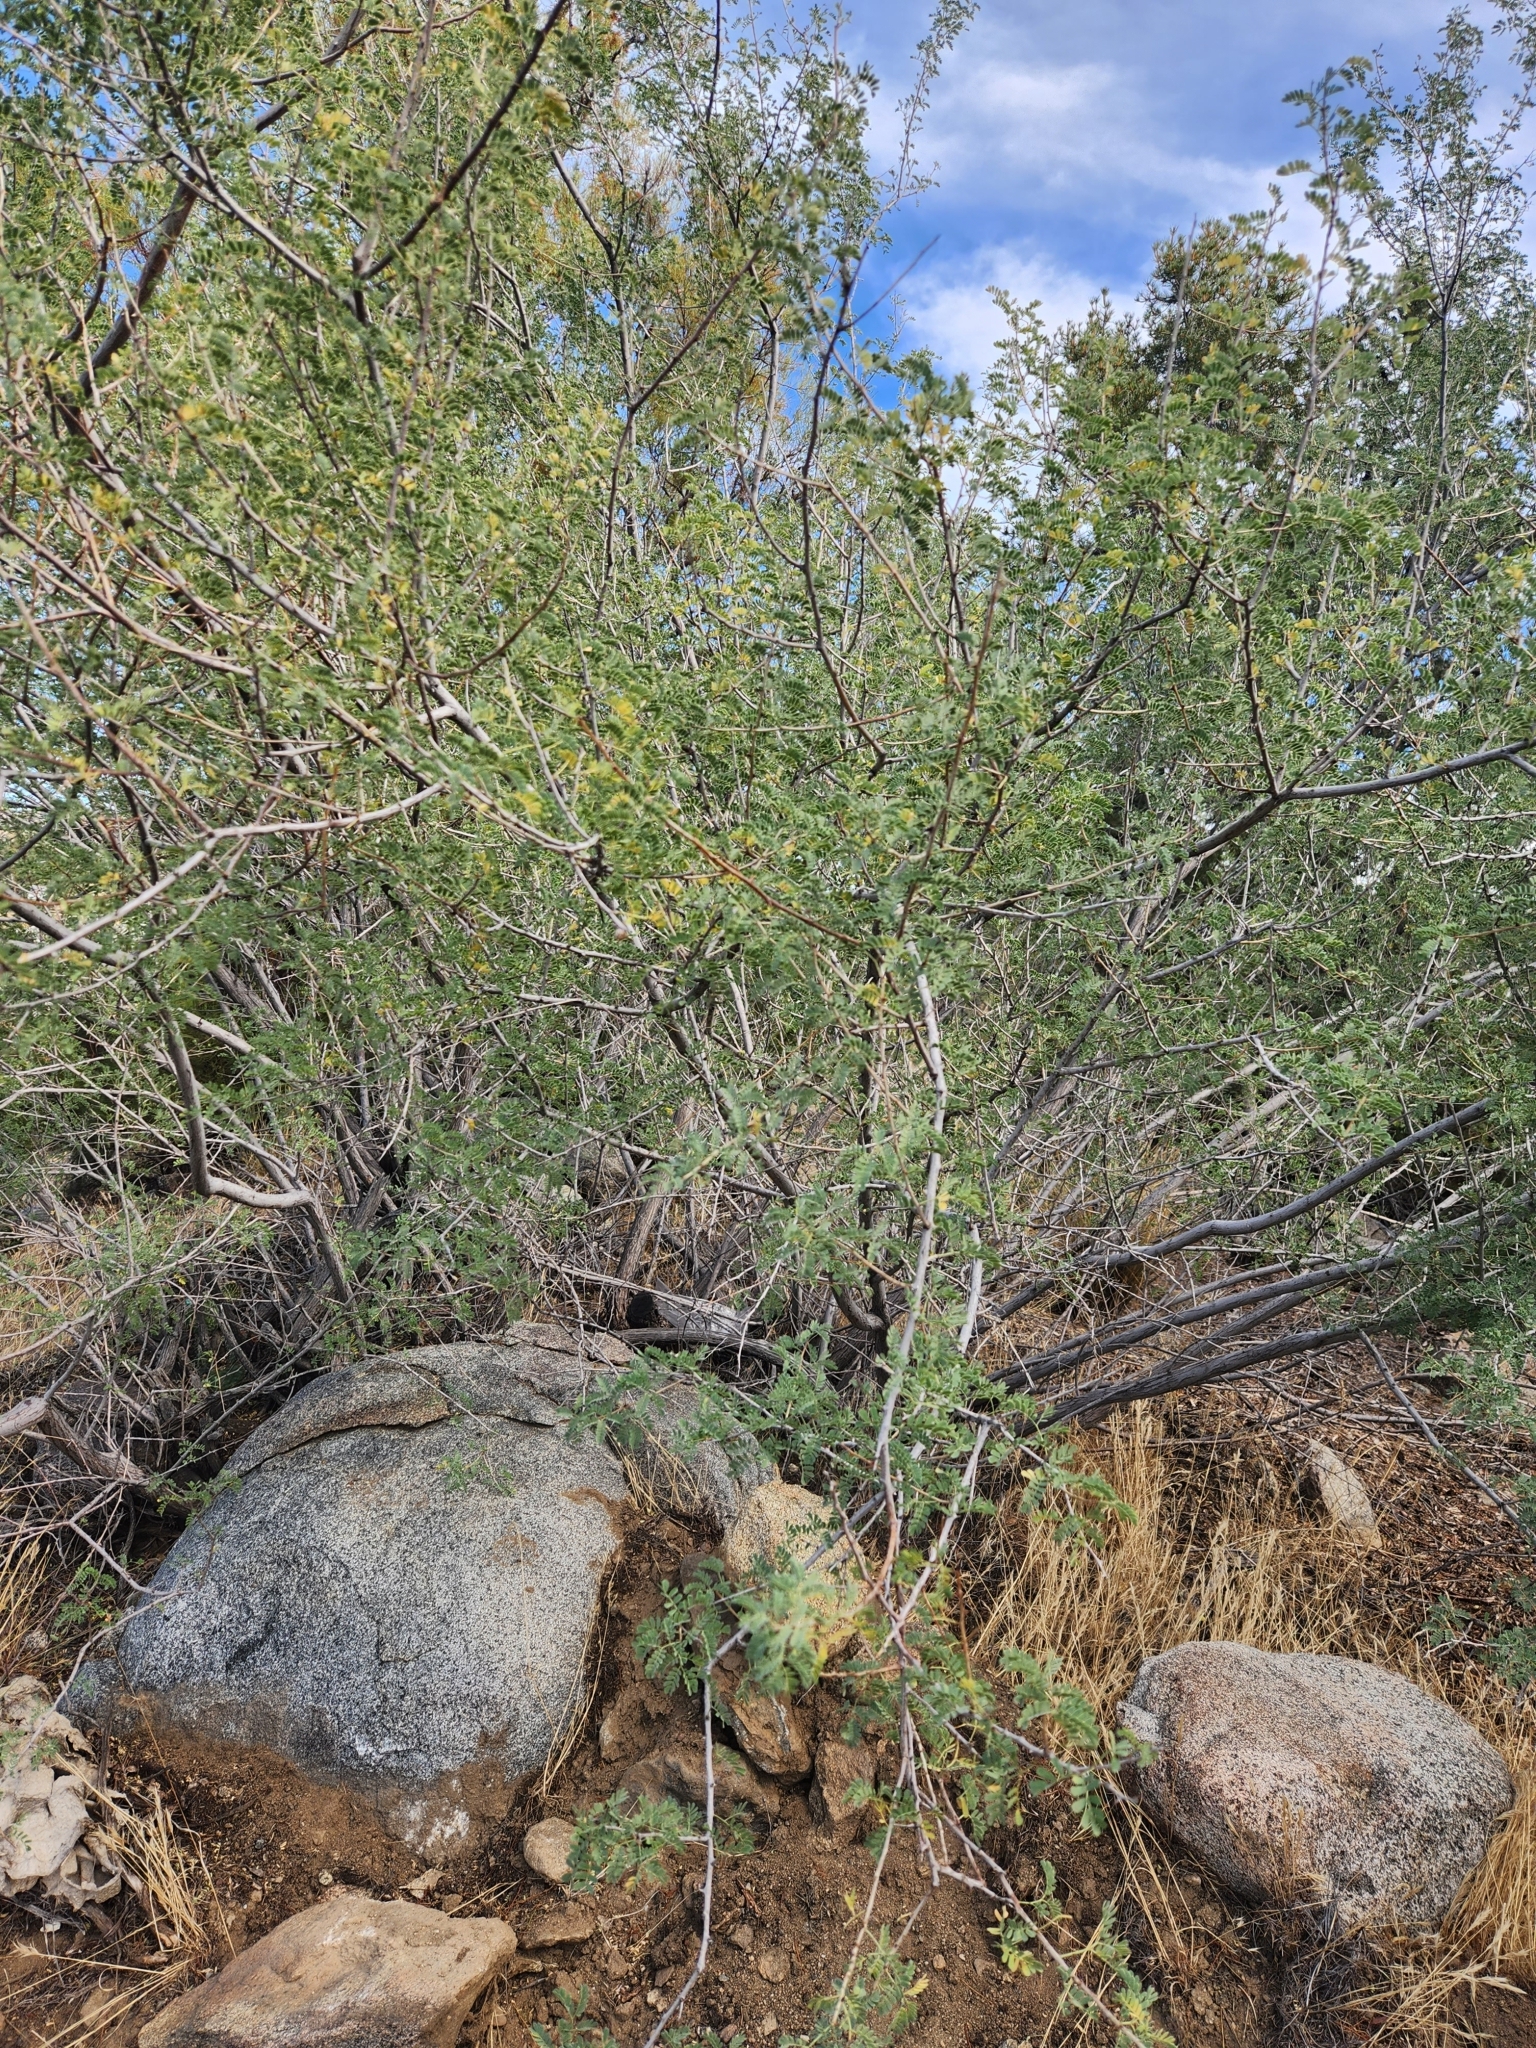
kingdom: Plantae
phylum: Tracheophyta
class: Magnoliopsida
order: Fabales
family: Fabaceae
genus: Senegalia
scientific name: Senegalia greggii
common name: Texas-mimosa
